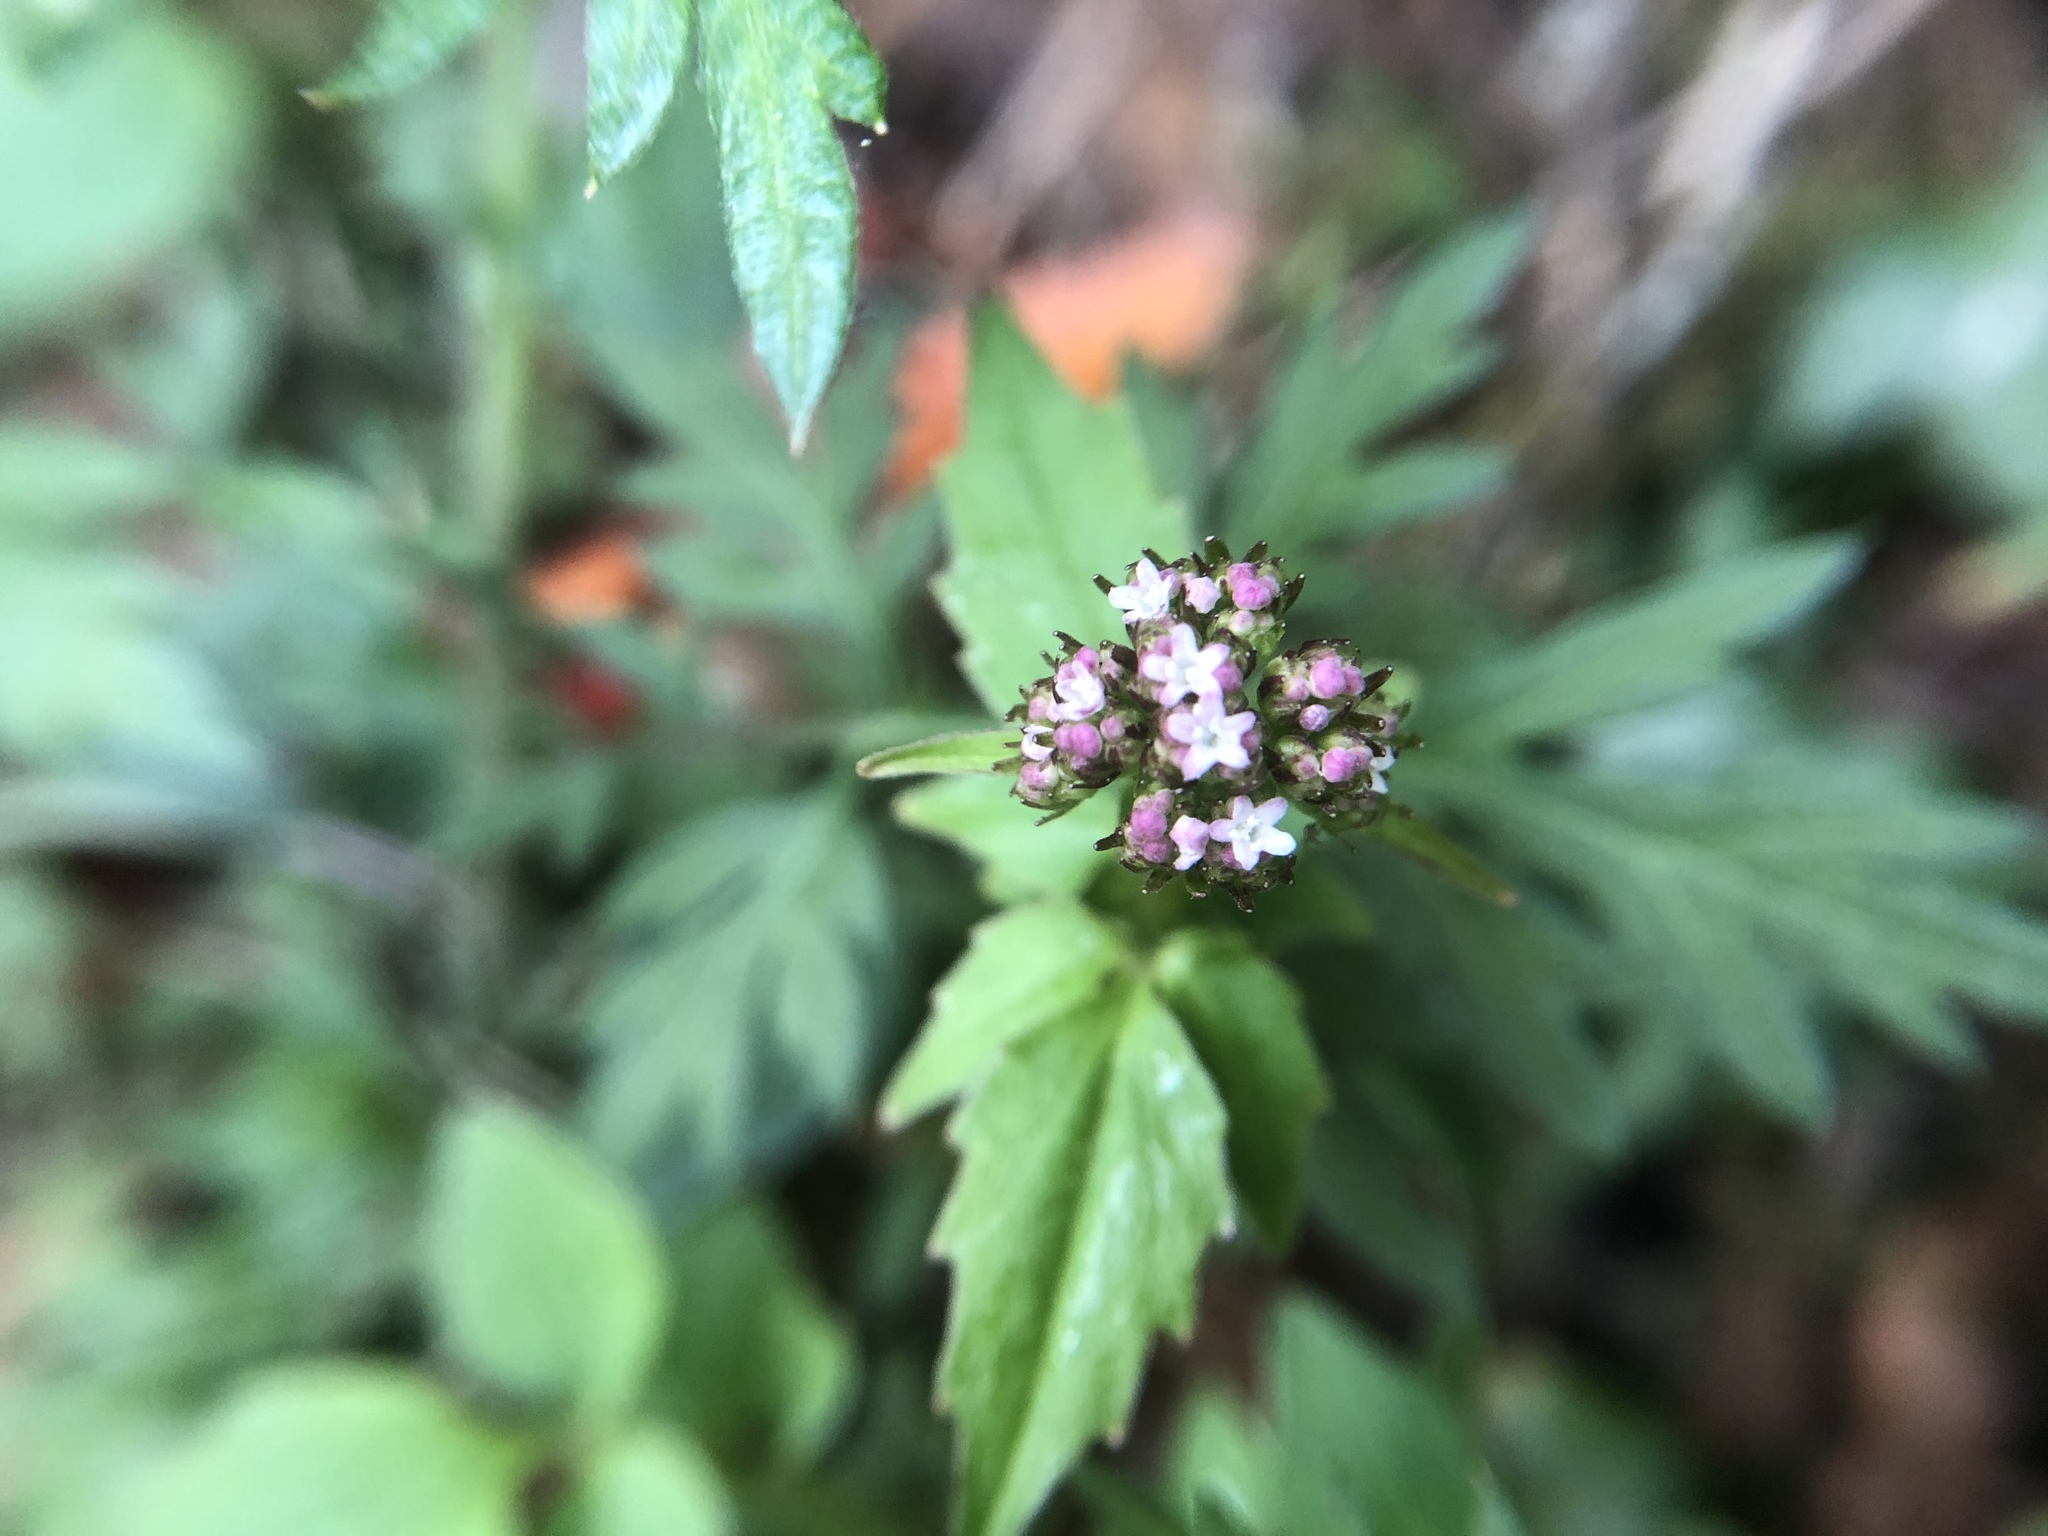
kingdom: Plantae
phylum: Tracheophyta
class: Magnoliopsida
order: Dipsacales
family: Caprifoliaceae
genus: Valeriana
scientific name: Valeriana flaccidissima
